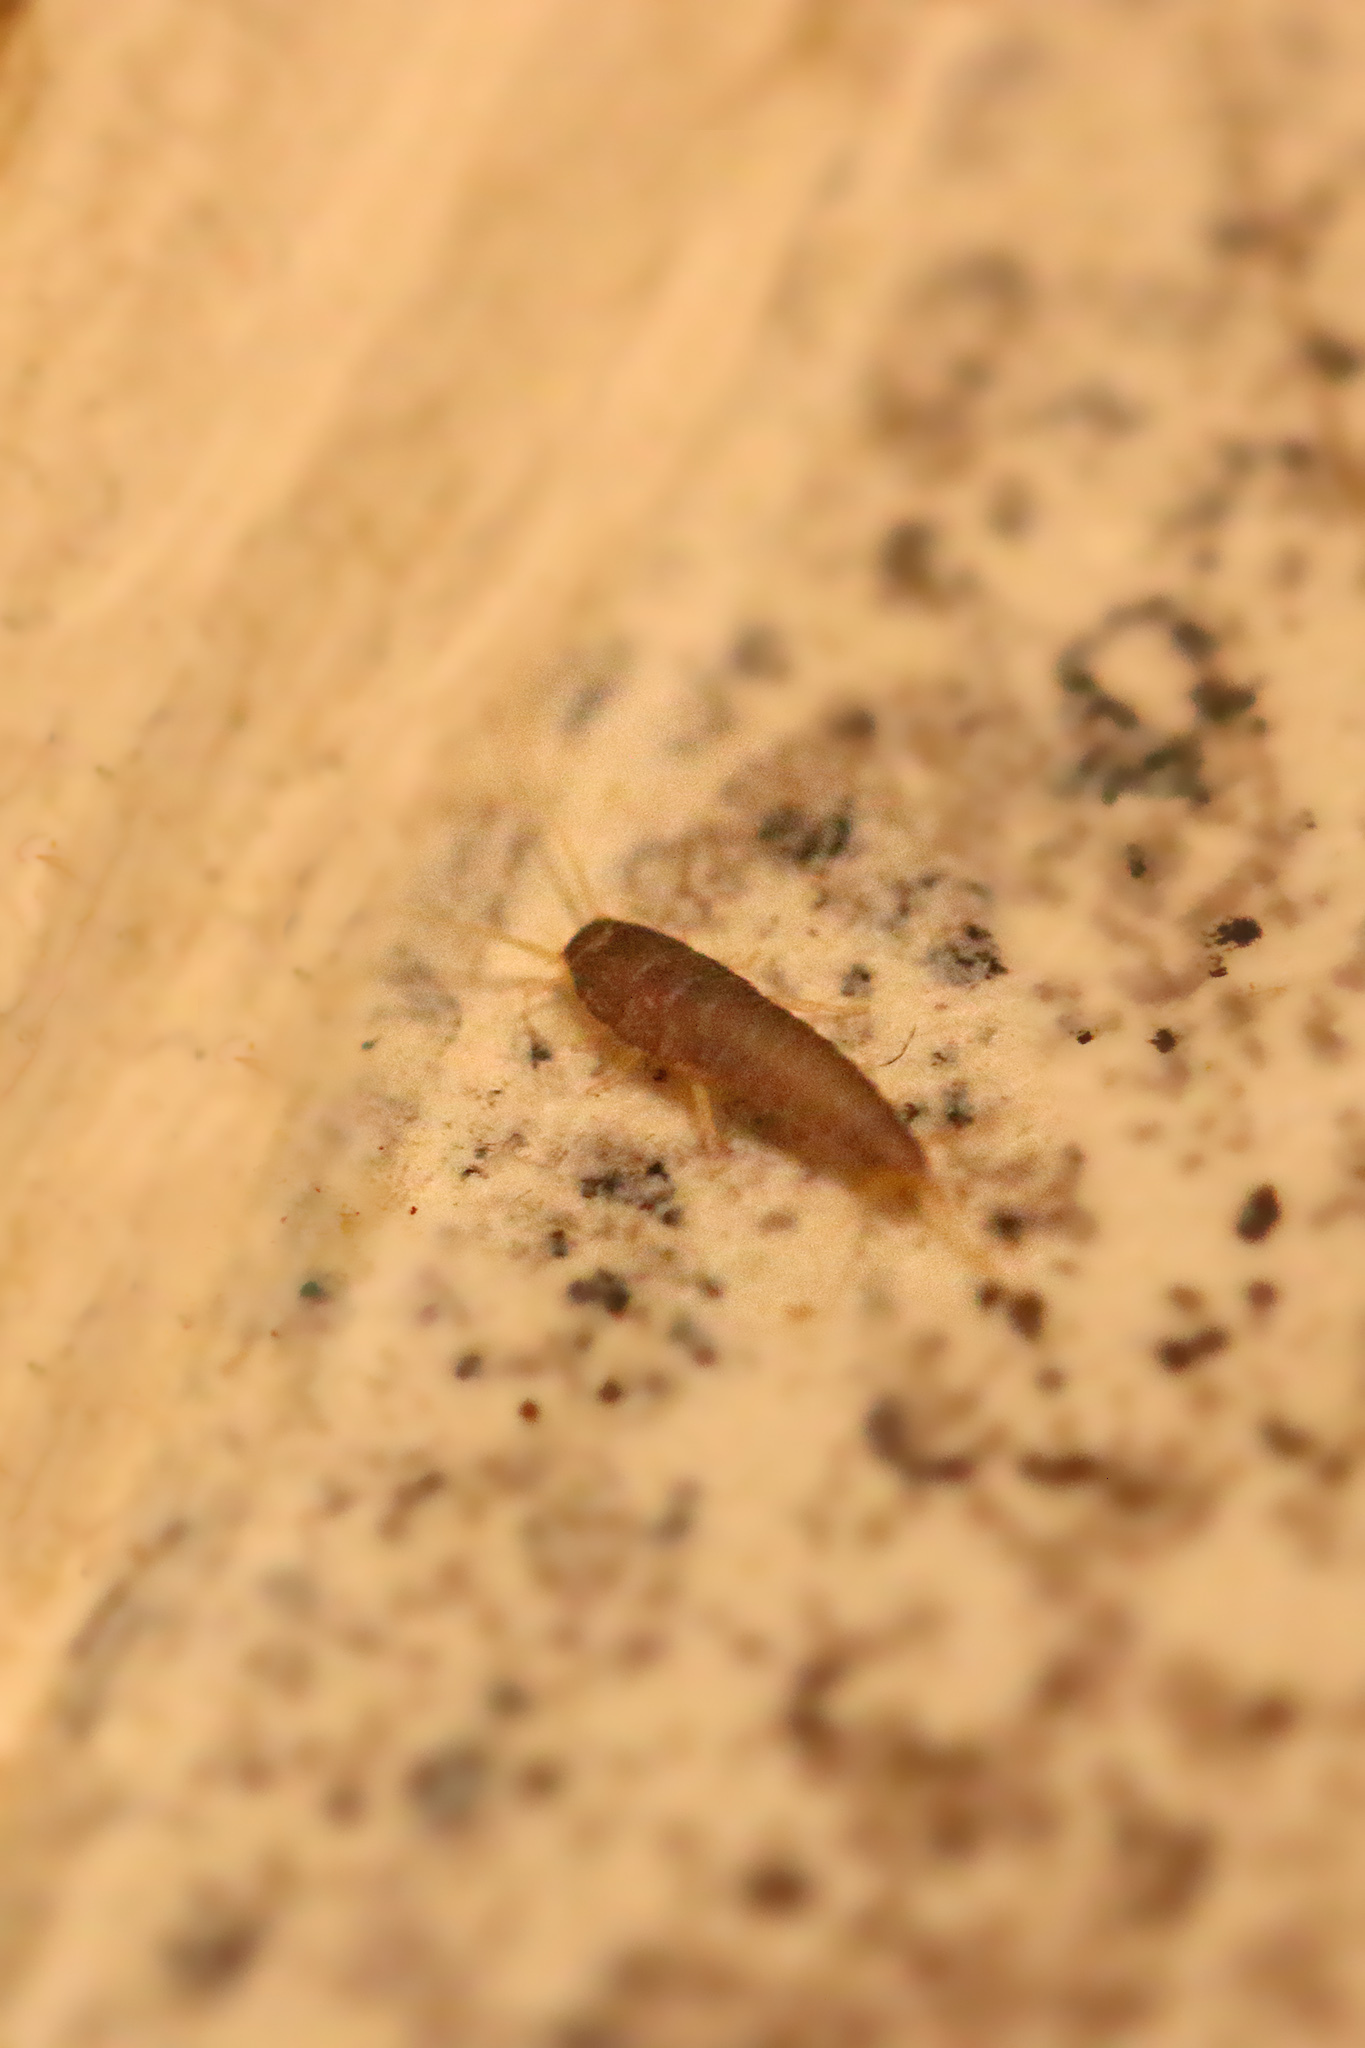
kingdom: Animalia
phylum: Arthropoda
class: Insecta
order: Zygentoma
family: Lepismatidae
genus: Lepisma
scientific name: Lepisma saccharinum
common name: Silverfish
